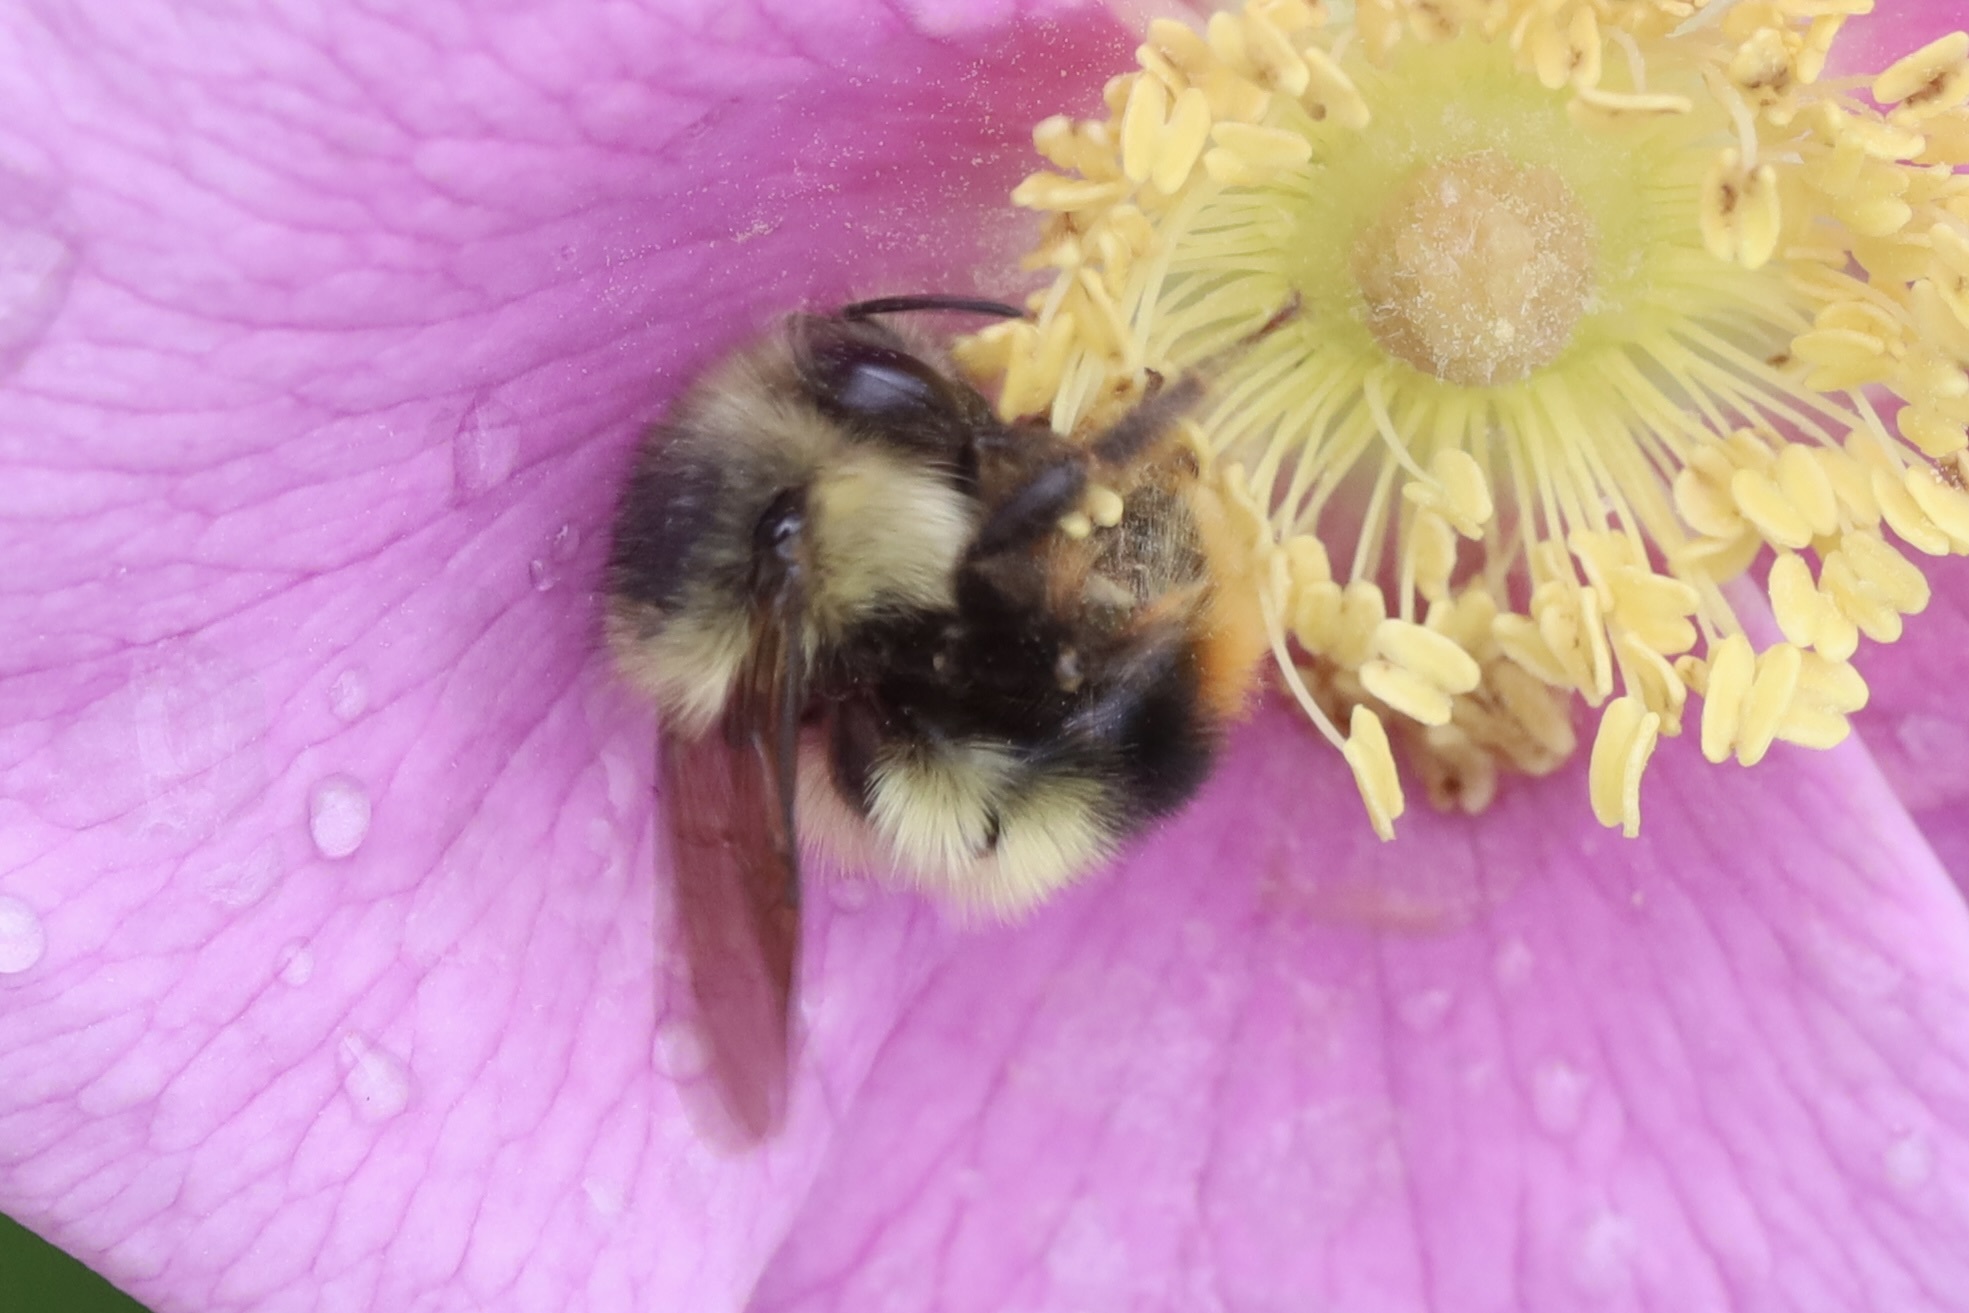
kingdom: Animalia
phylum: Arthropoda
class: Insecta
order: Hymenoptera
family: Apidae
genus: Bombus
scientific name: Bombus mixtus
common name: Fuzzy-horned bumble bee
